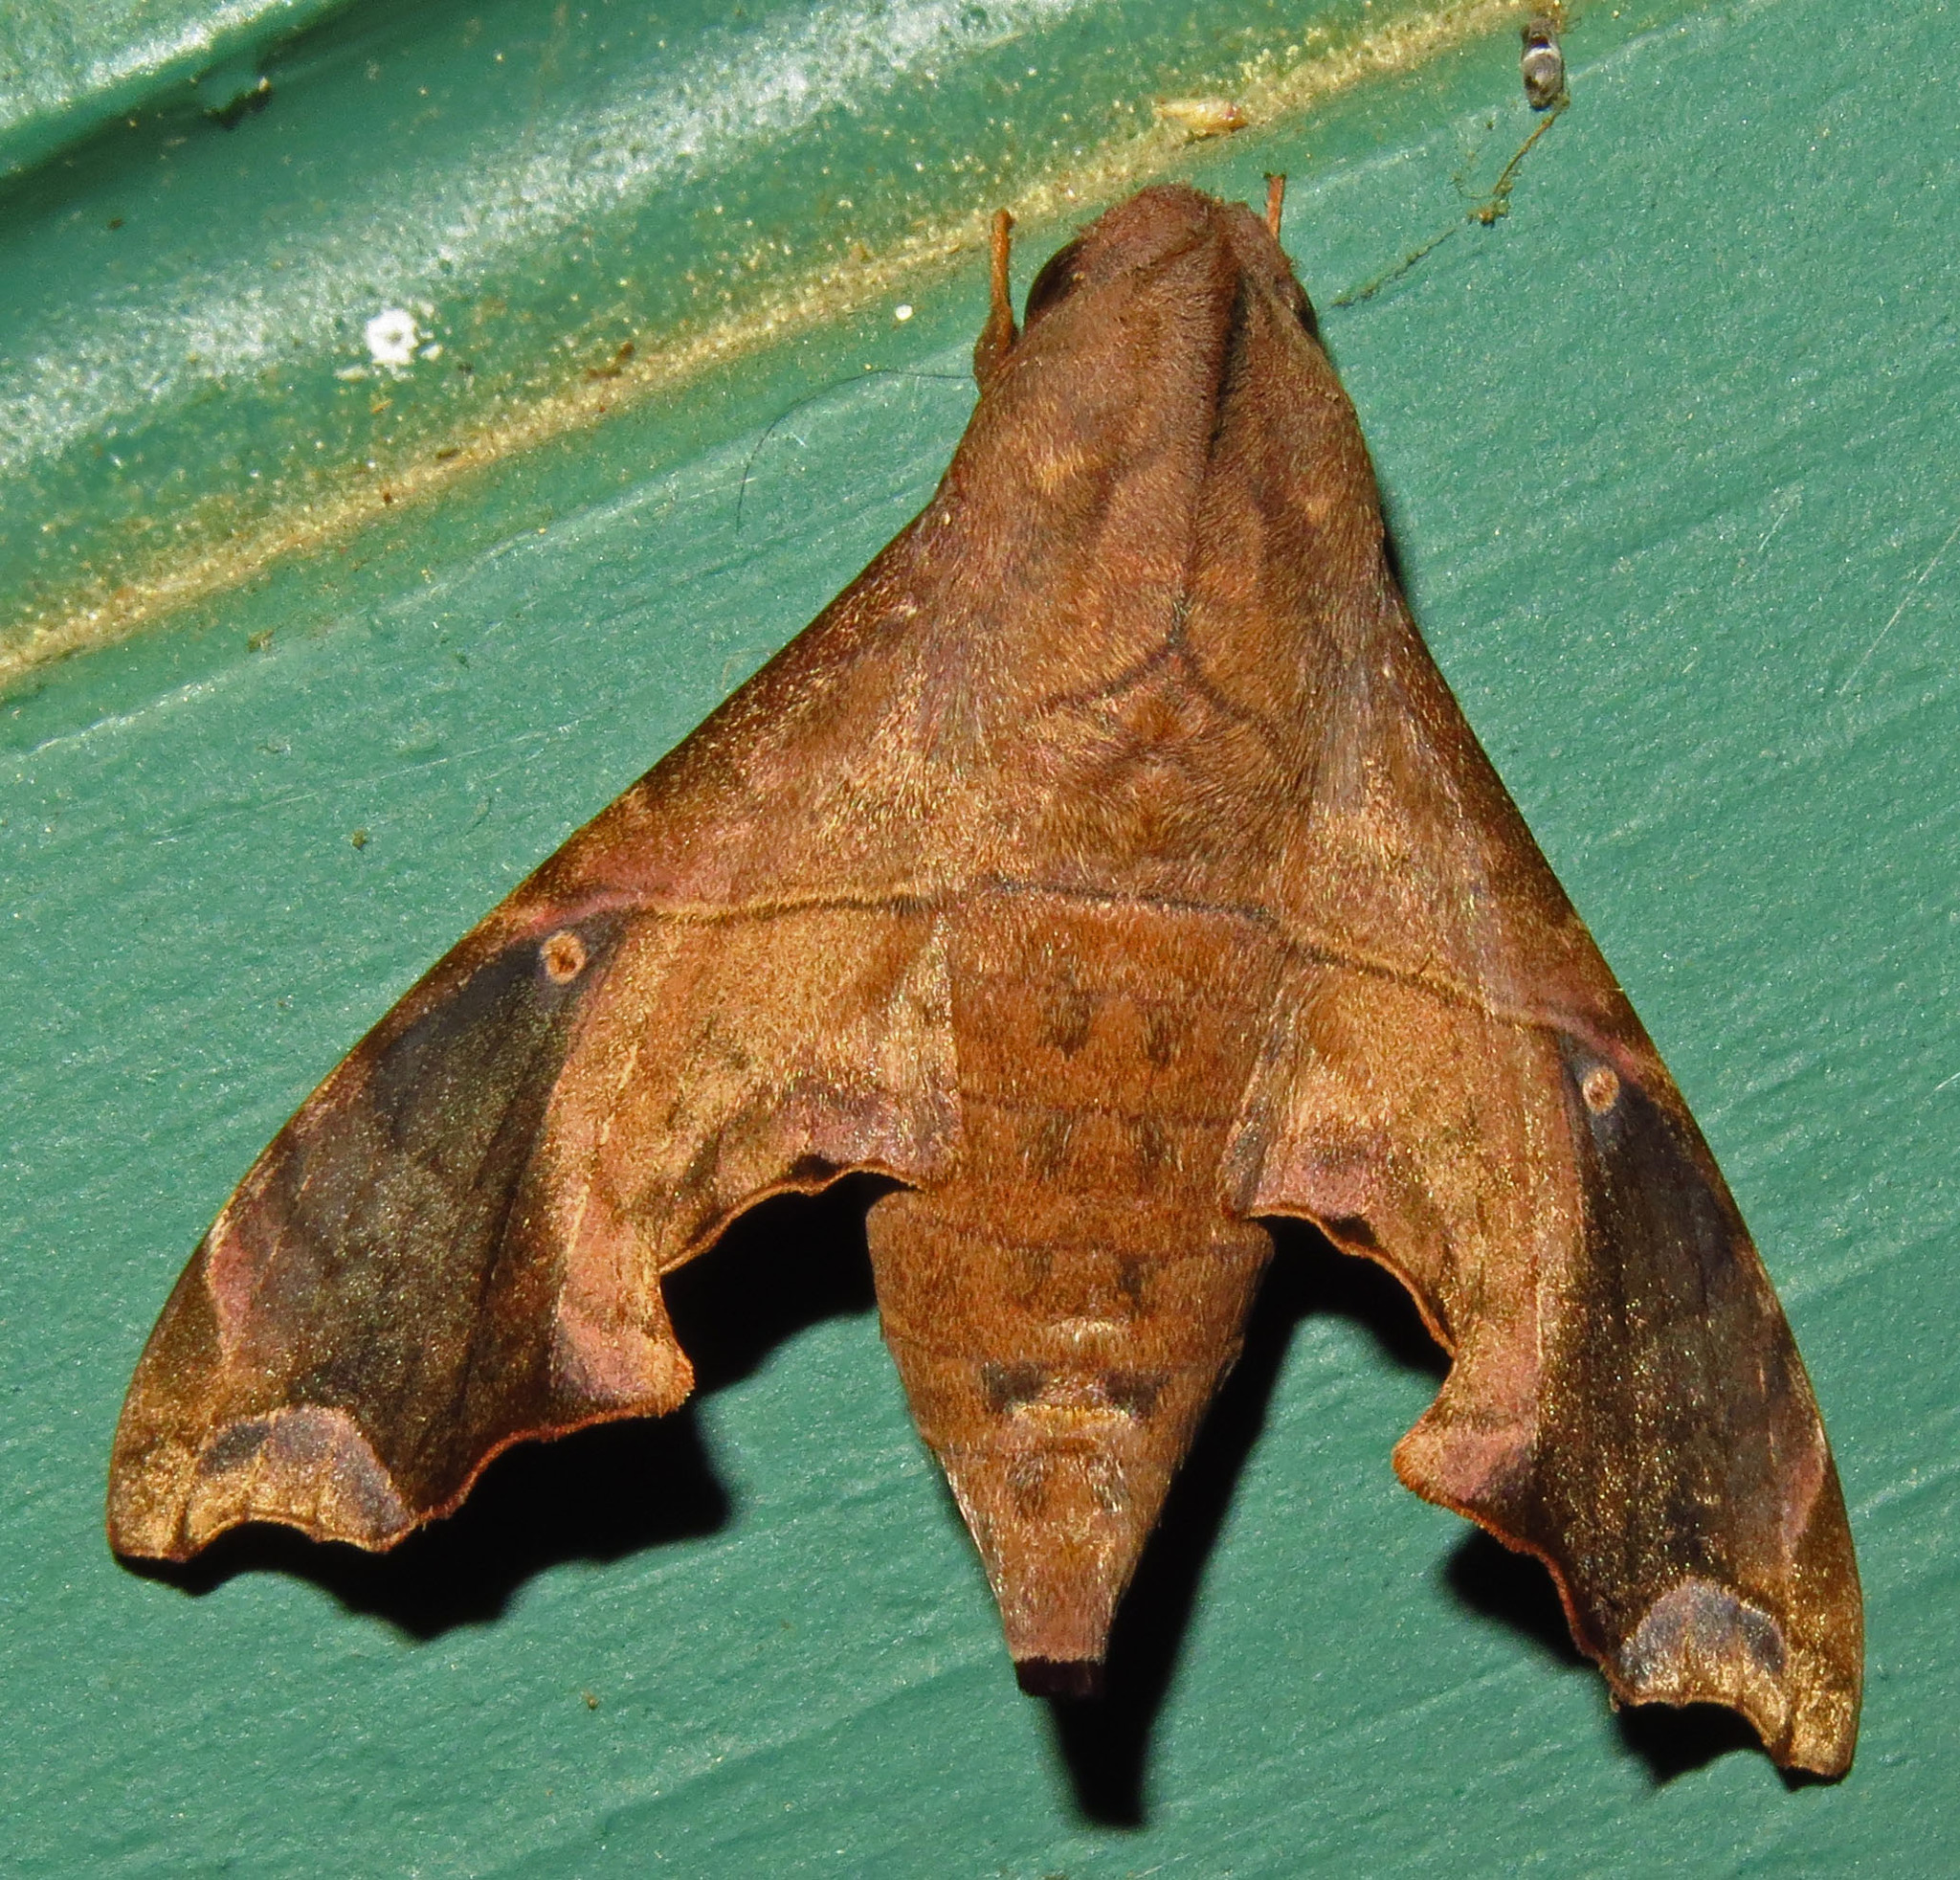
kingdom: Animalia
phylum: Arthropoda
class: Insecta
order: Lepidoptera
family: Sphingidae
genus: Enyo
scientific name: Enyo lugubris
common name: Mournful sphinx
